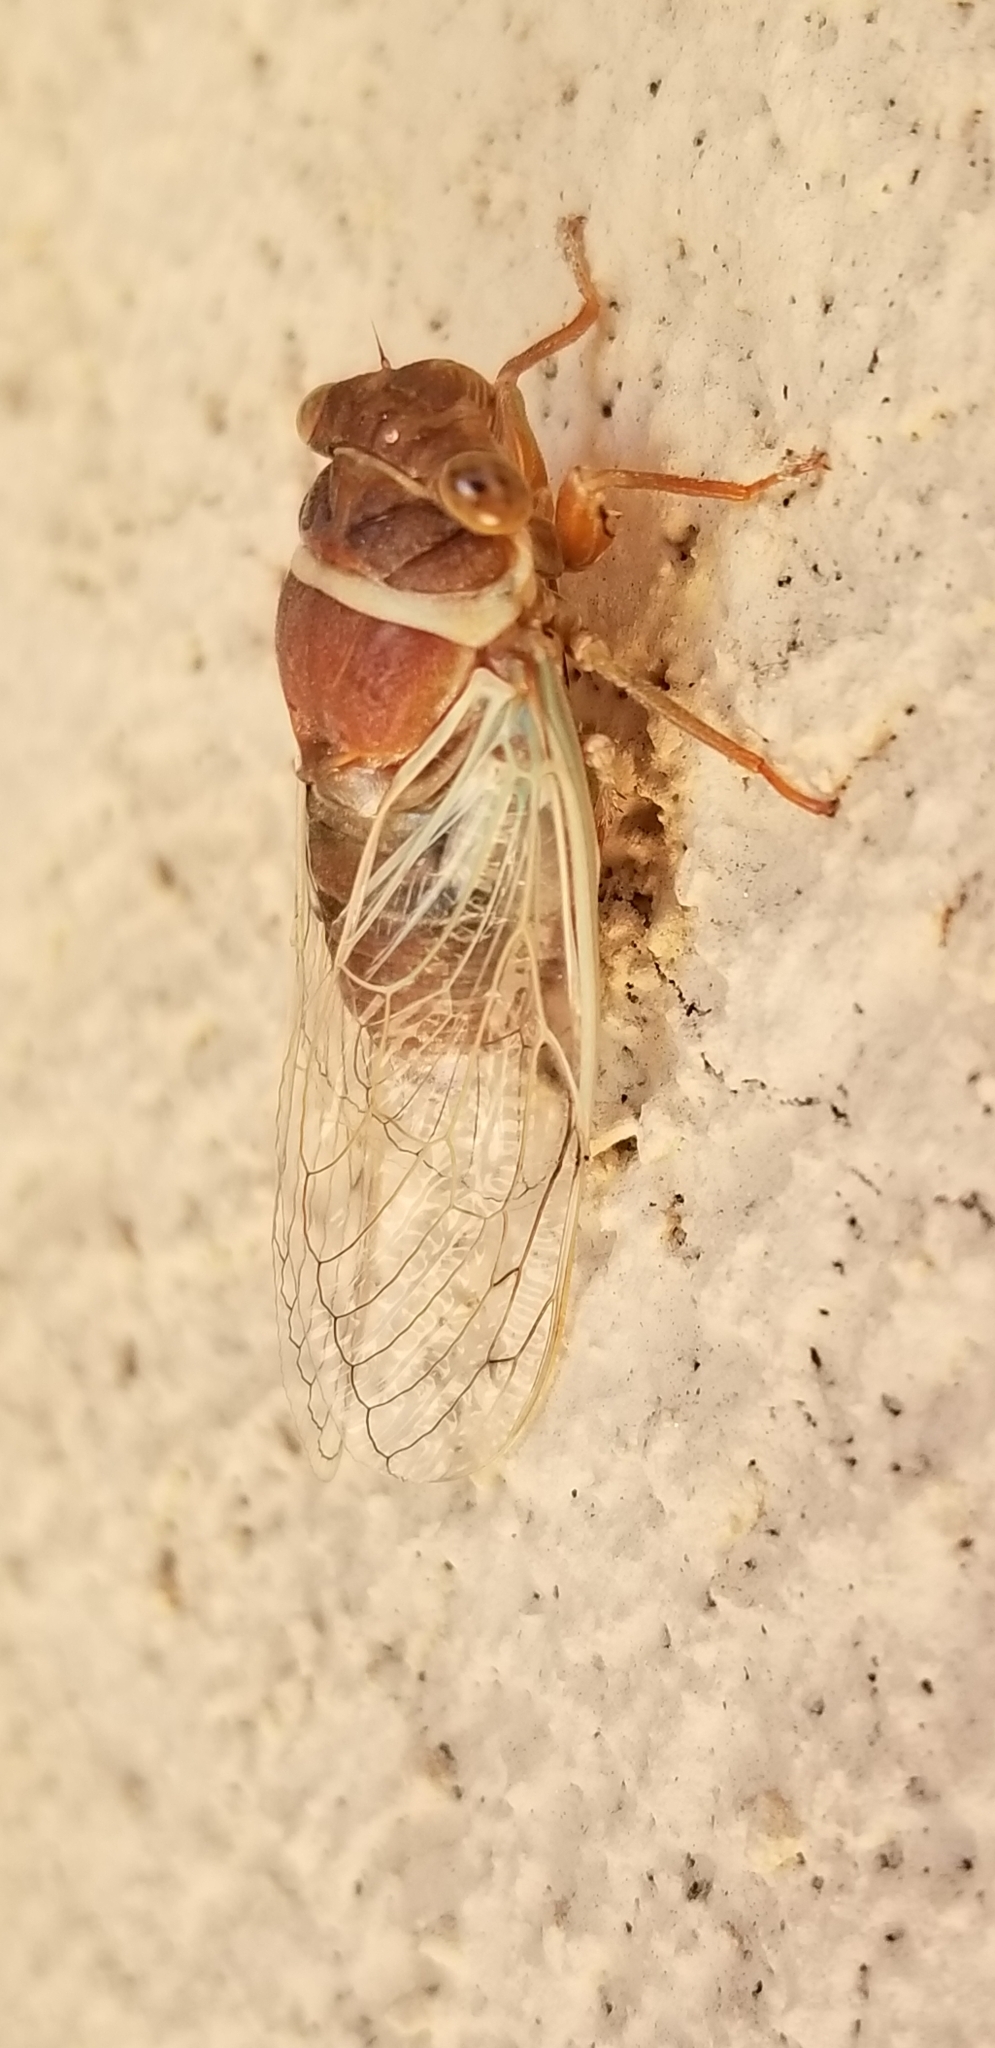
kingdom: Animalia
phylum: Arthropoda
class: Insecta
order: Hemiptera
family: Cicadidae
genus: Diceroprocta
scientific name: Diceroprocta apache
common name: Desert cicada
